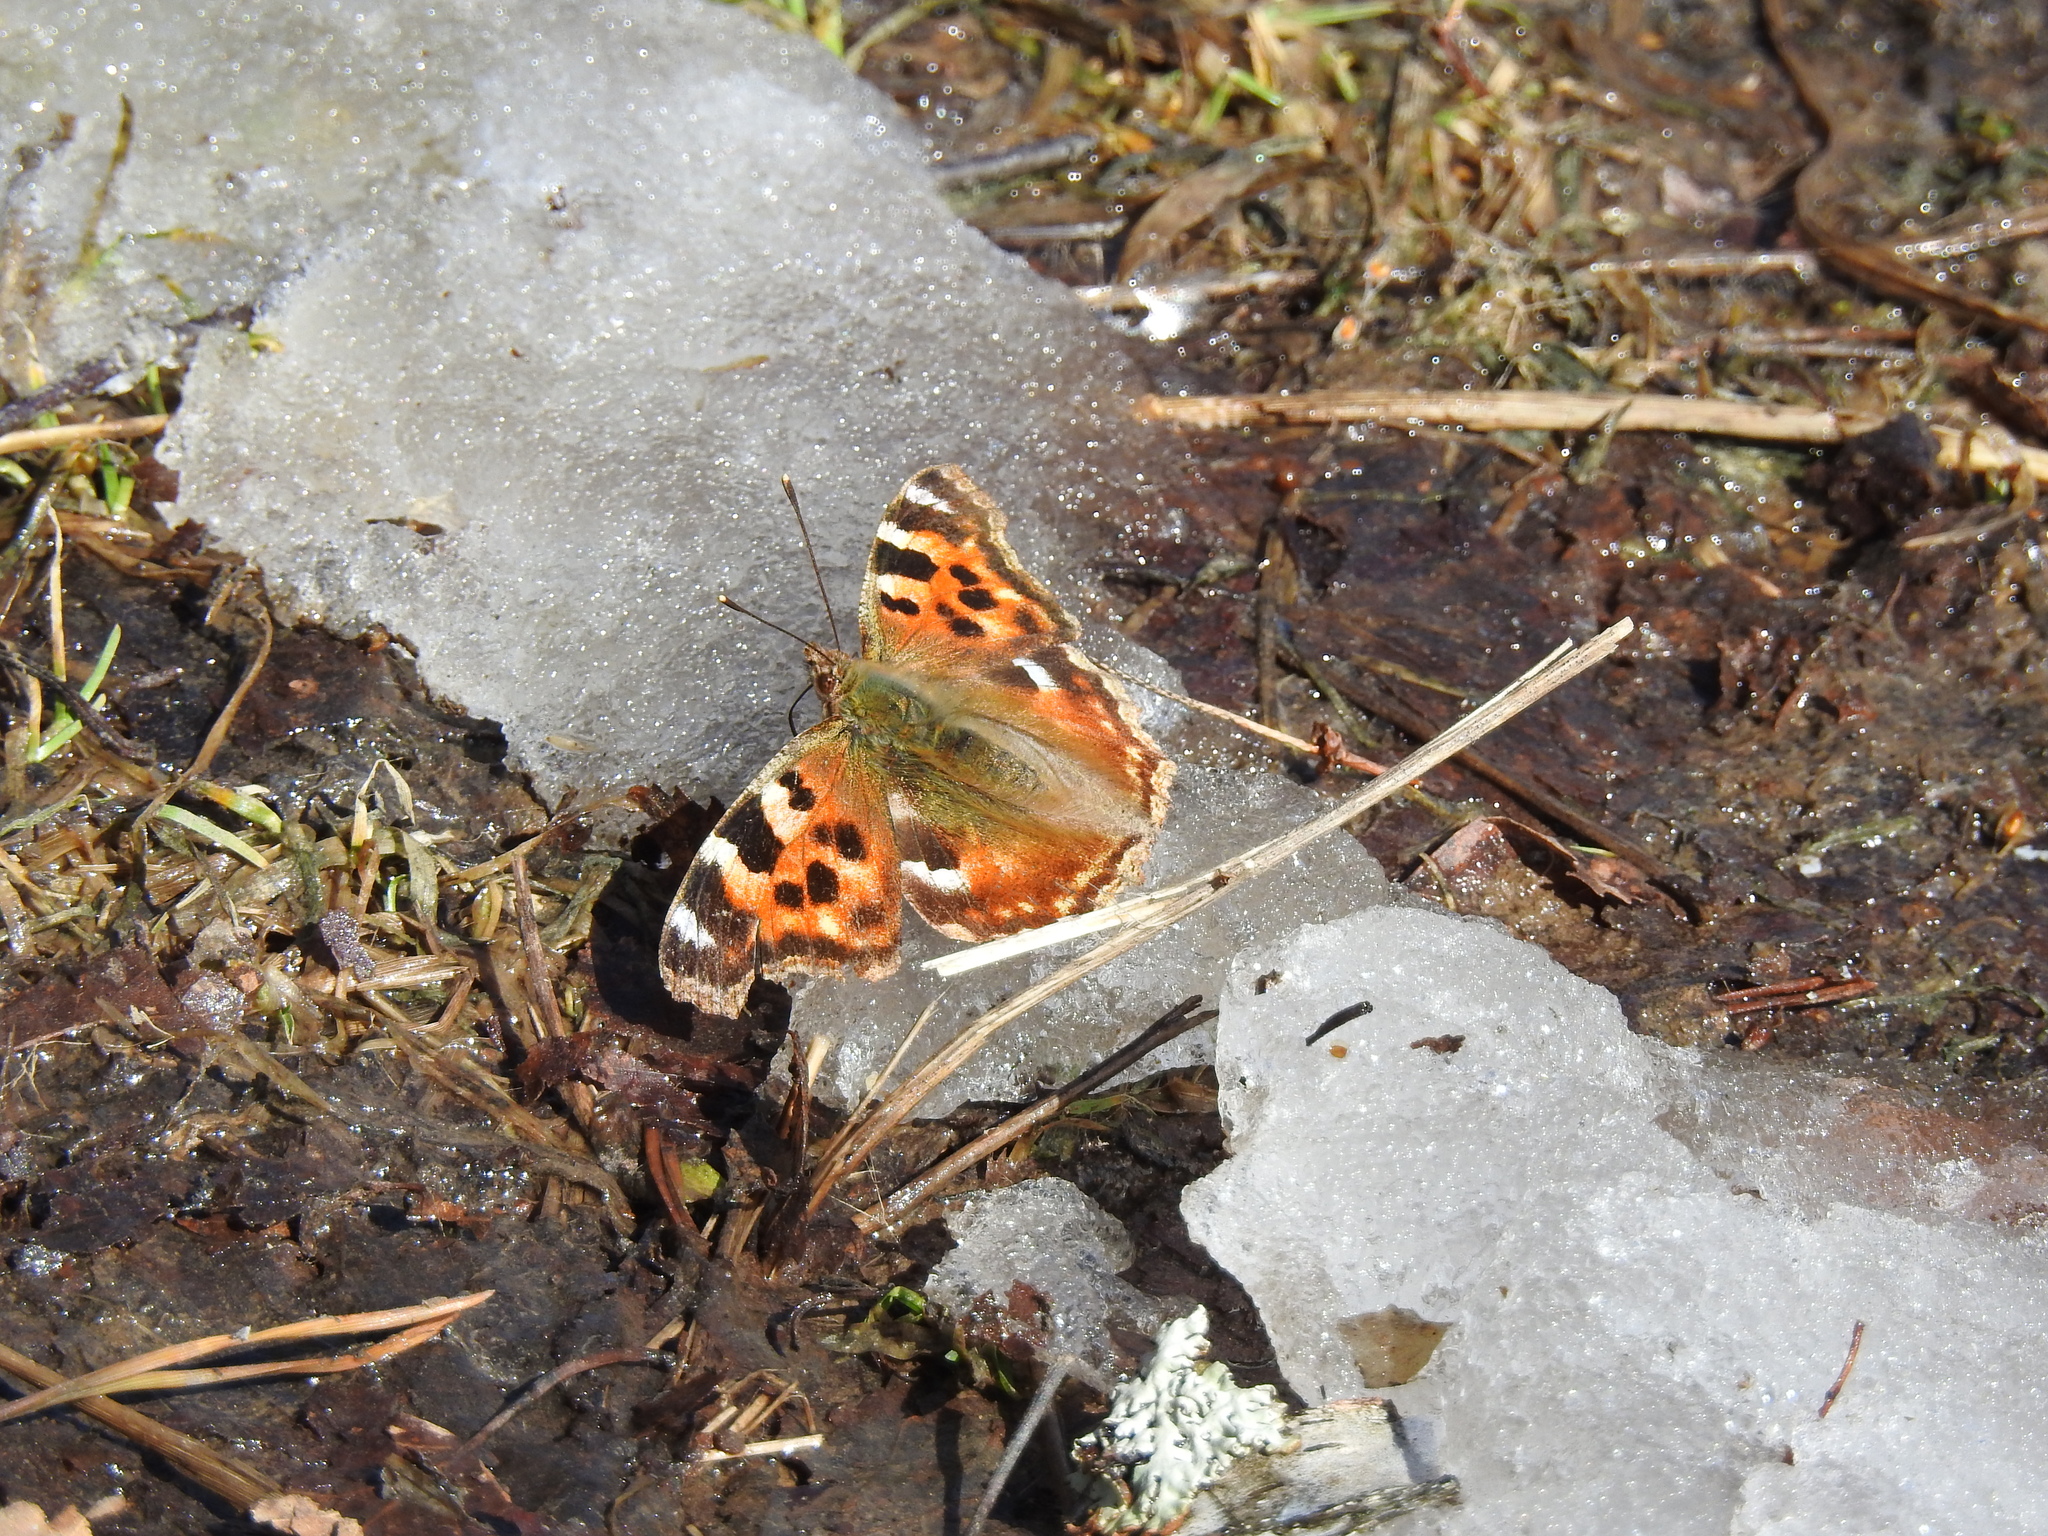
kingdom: Animalia
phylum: Arthropoda
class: Insecta
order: Lepidoptera
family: Nymphalidae
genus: Polygonia
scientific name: Polygonia vaualbum
